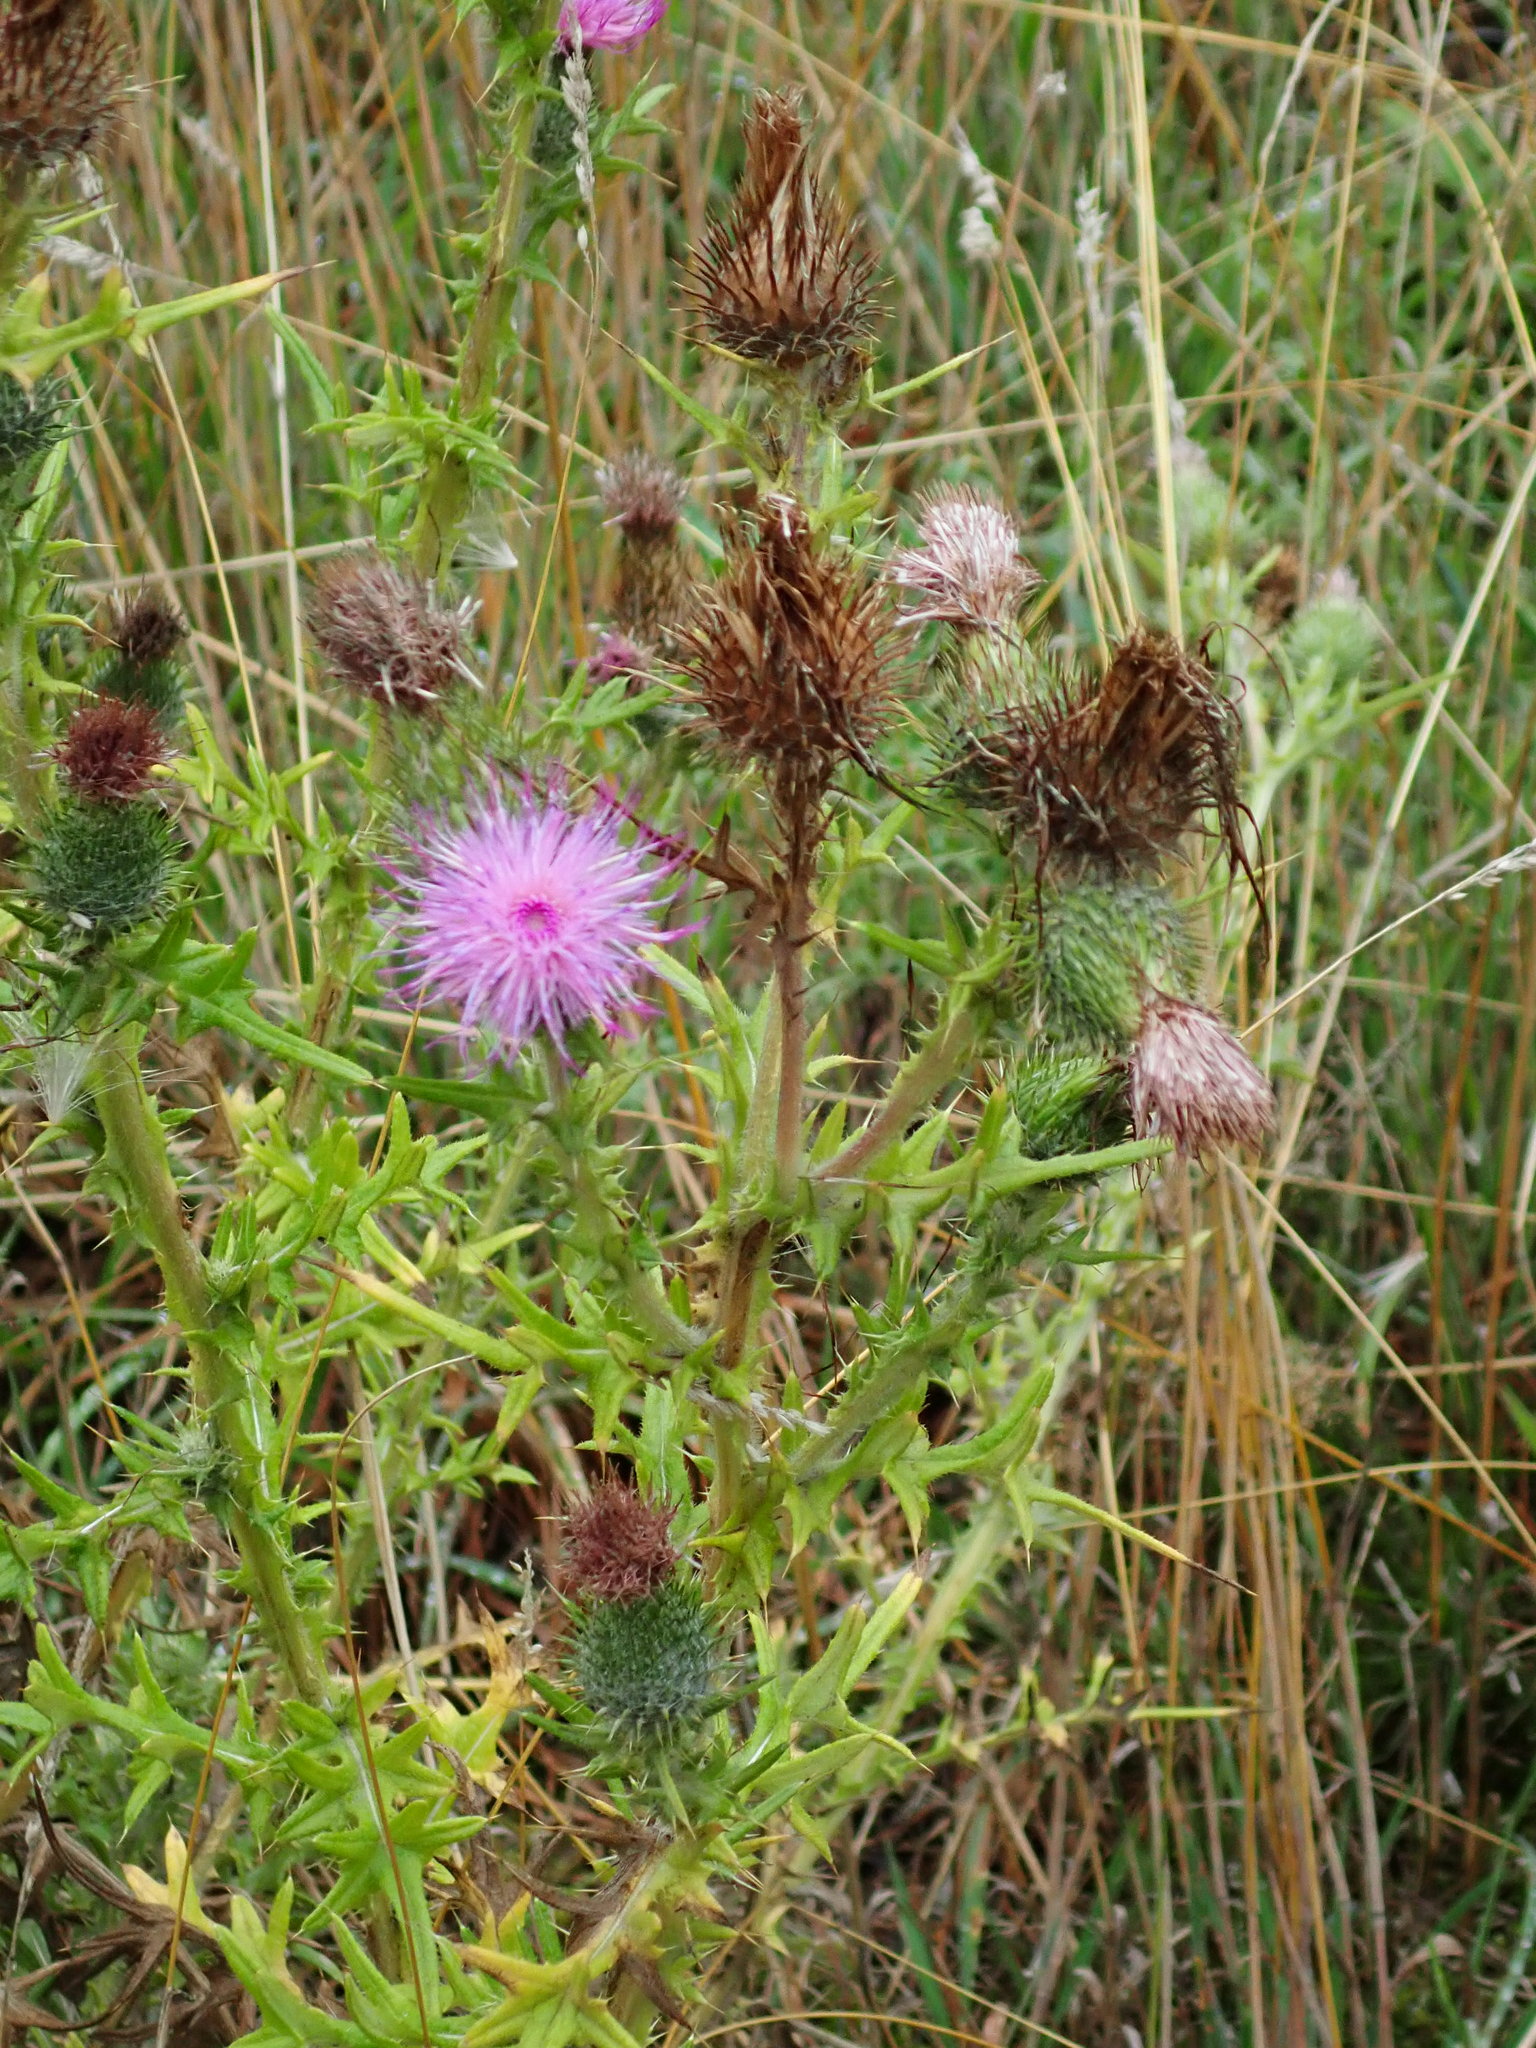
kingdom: Plantae
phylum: Tracheophyta
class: Magnoliopsida
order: Asterales
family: Asteraceae
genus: Cirsium
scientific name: Cirsium vulgare
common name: Bull thistle
